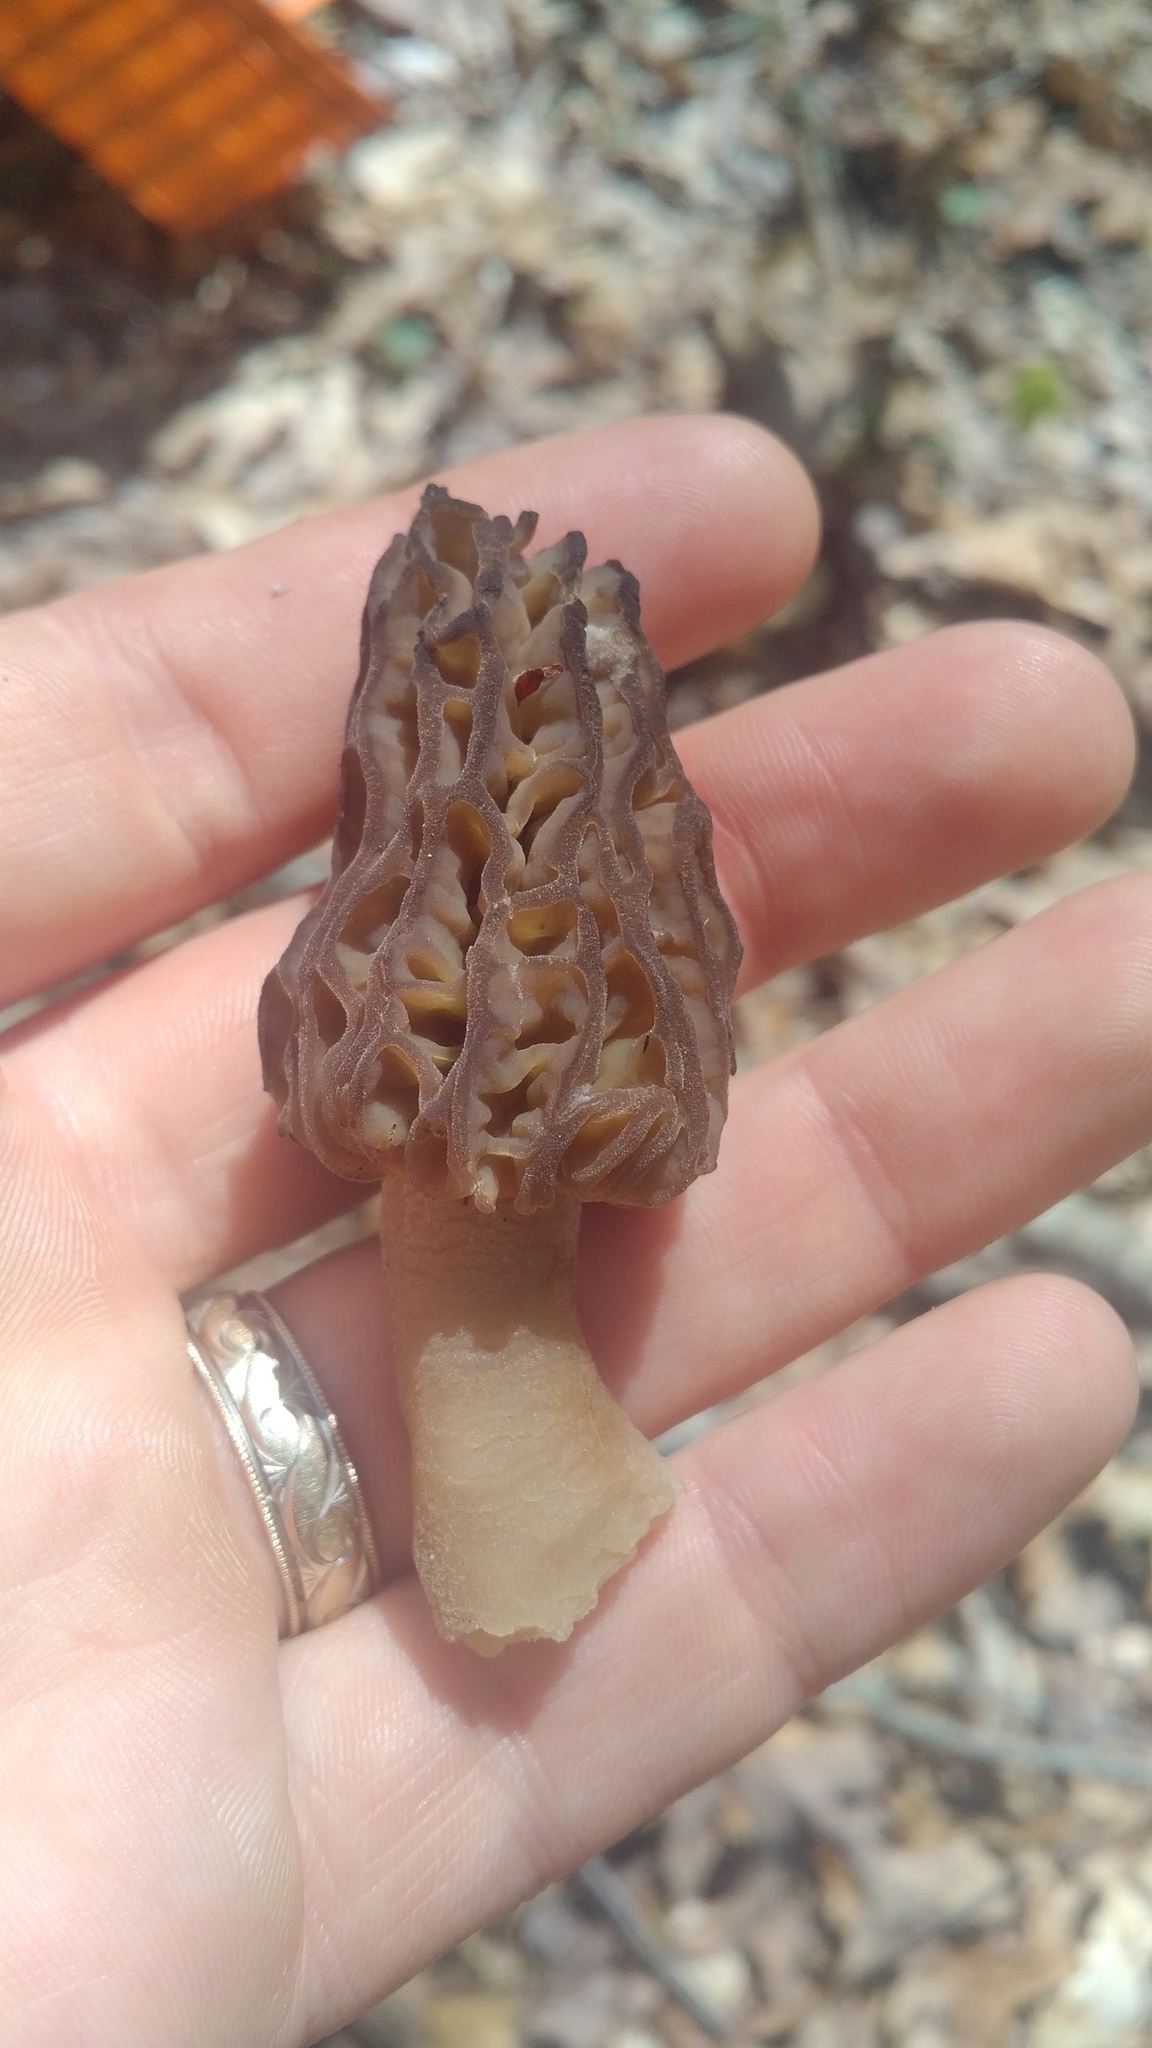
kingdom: Fungi
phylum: Ascomycota
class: Pezizomycetes
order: Pezizales
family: Morchellaceae
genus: Morchella
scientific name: Morchella angusticeps
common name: Black morel
